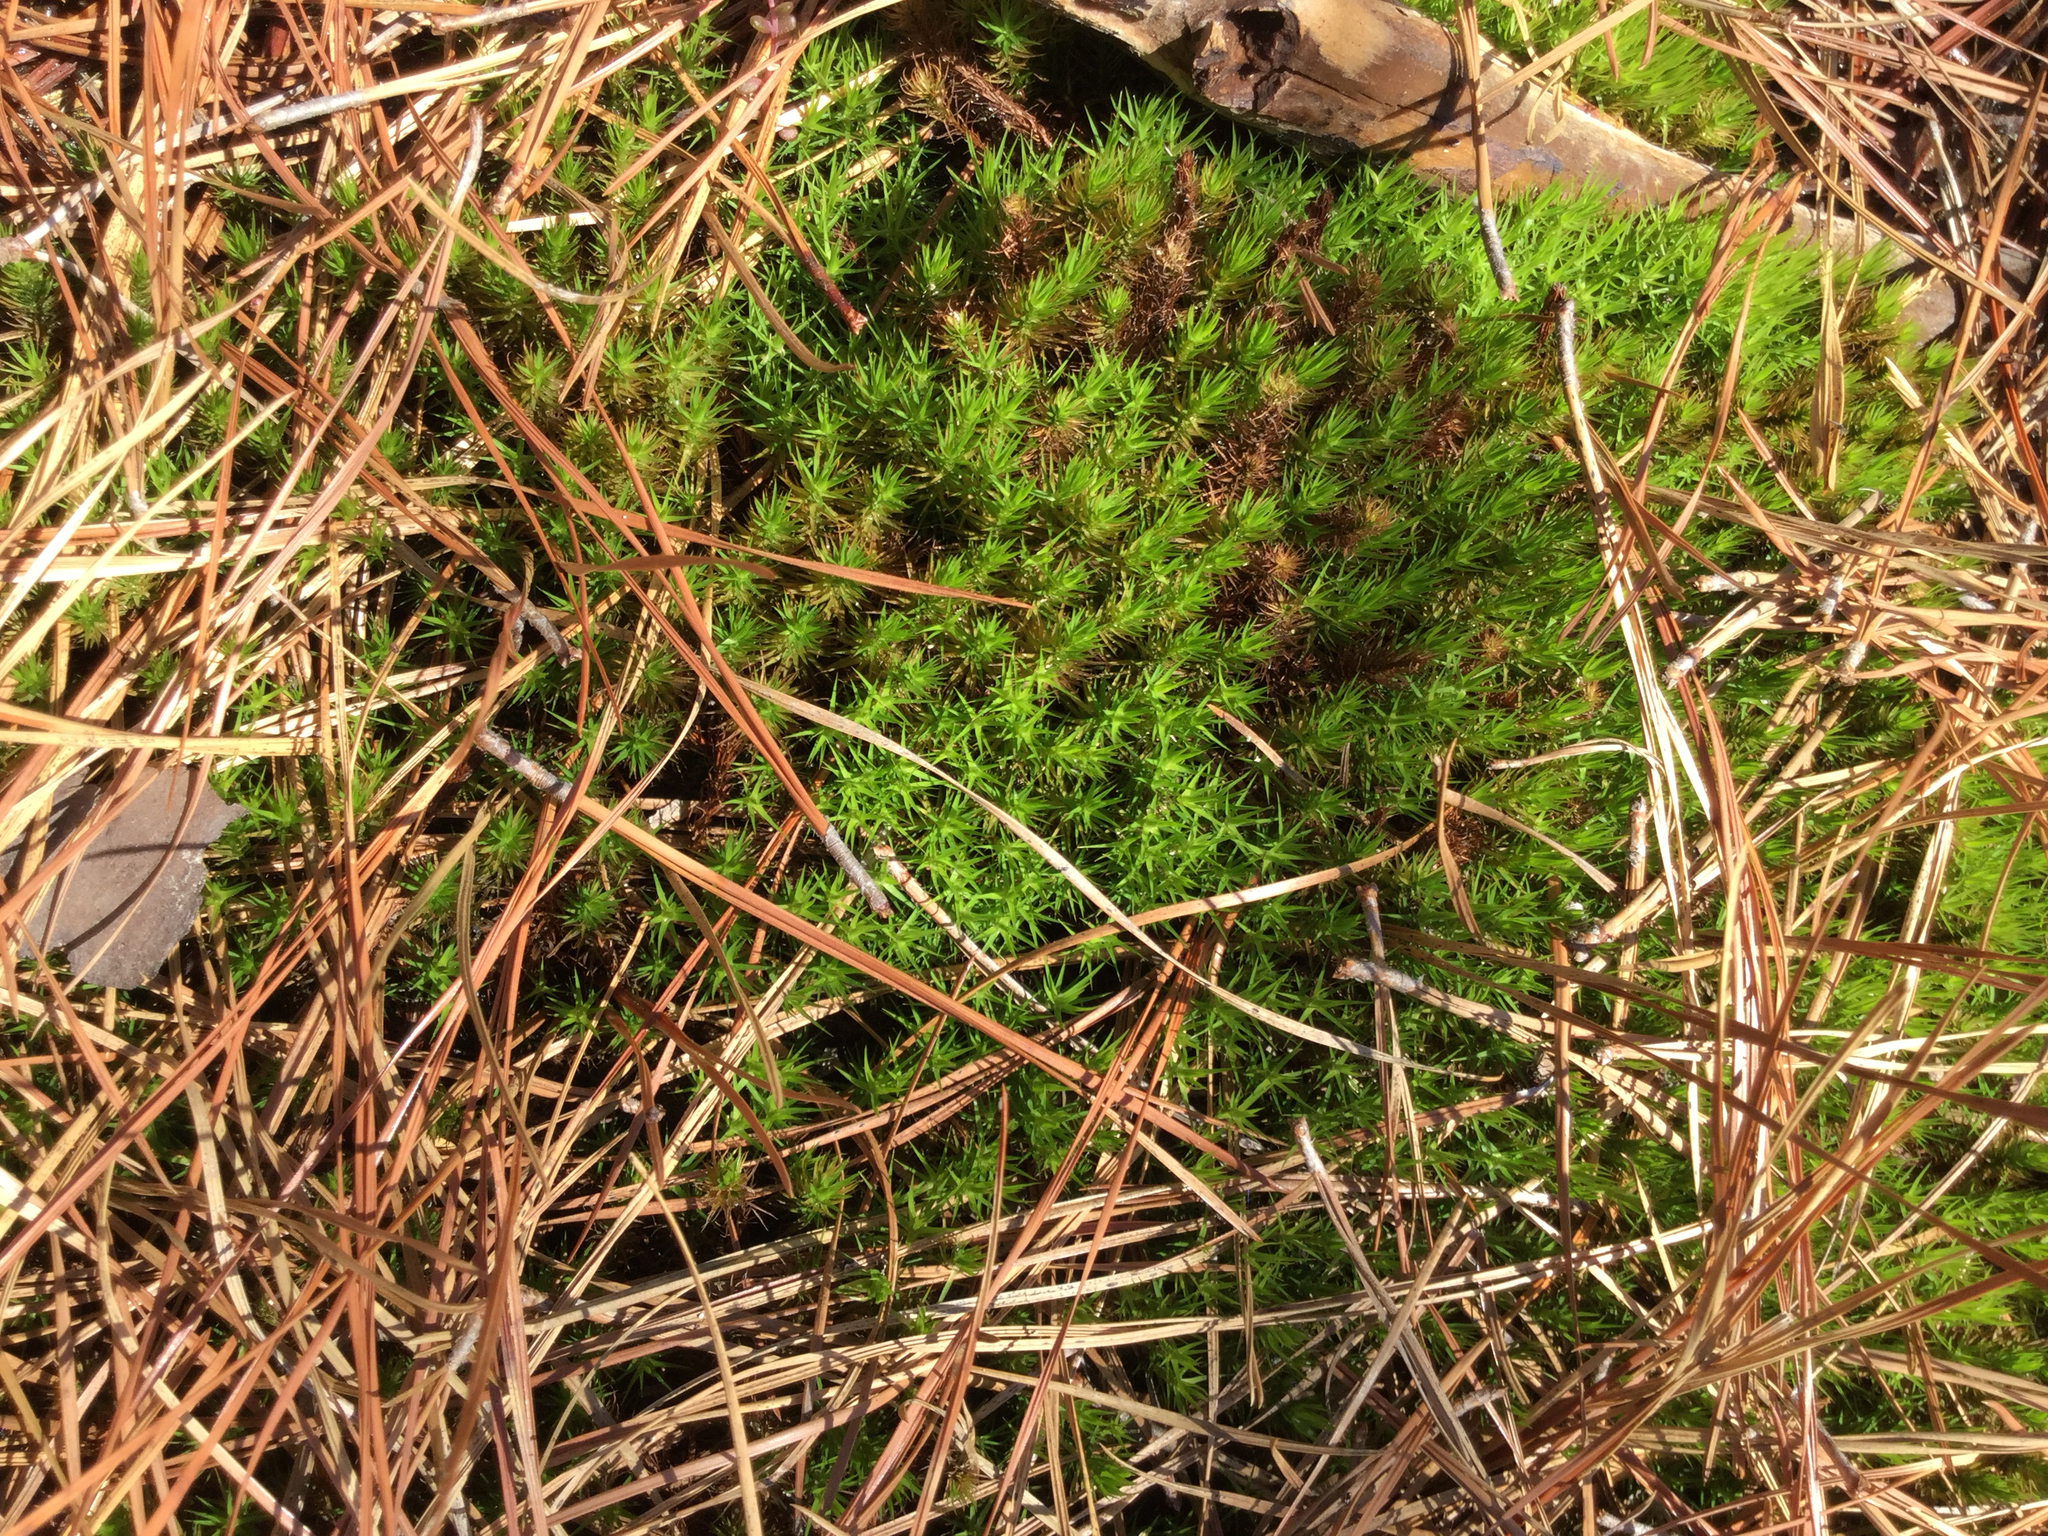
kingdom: Plantae
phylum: Bryophyta
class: Polytrichopsida
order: Polytrichales
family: Polytrichaceae
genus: Polytrichum
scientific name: Polytrichum commune
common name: Common haircap
